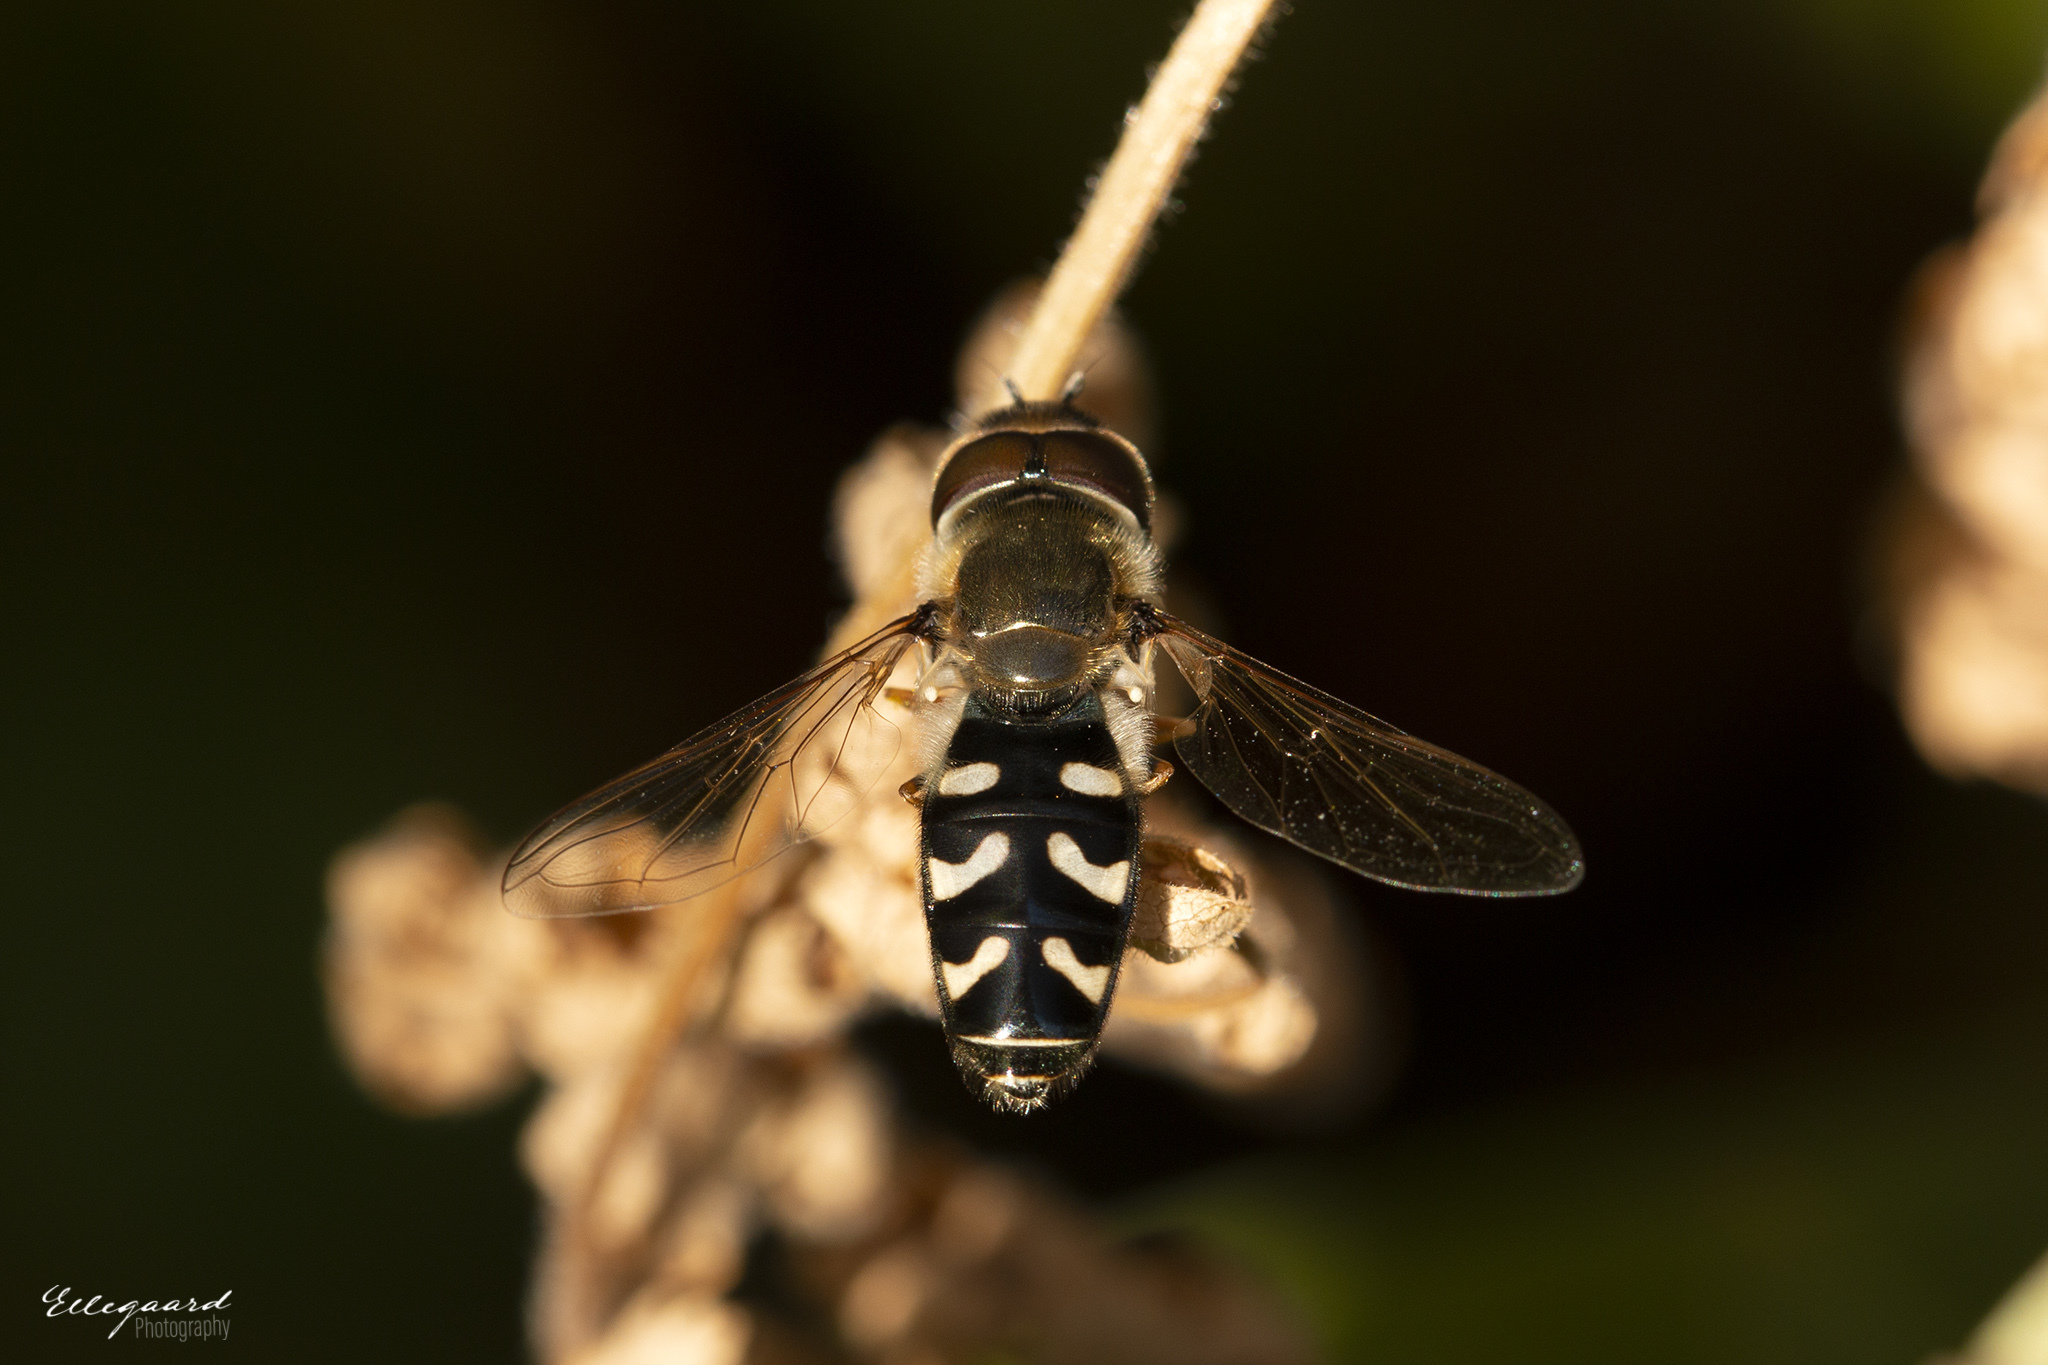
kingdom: Animalia
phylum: Arthropoda
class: Insecta
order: Diptera
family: Syrphidae
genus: Scaeva
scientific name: Scaeva pyrastri
